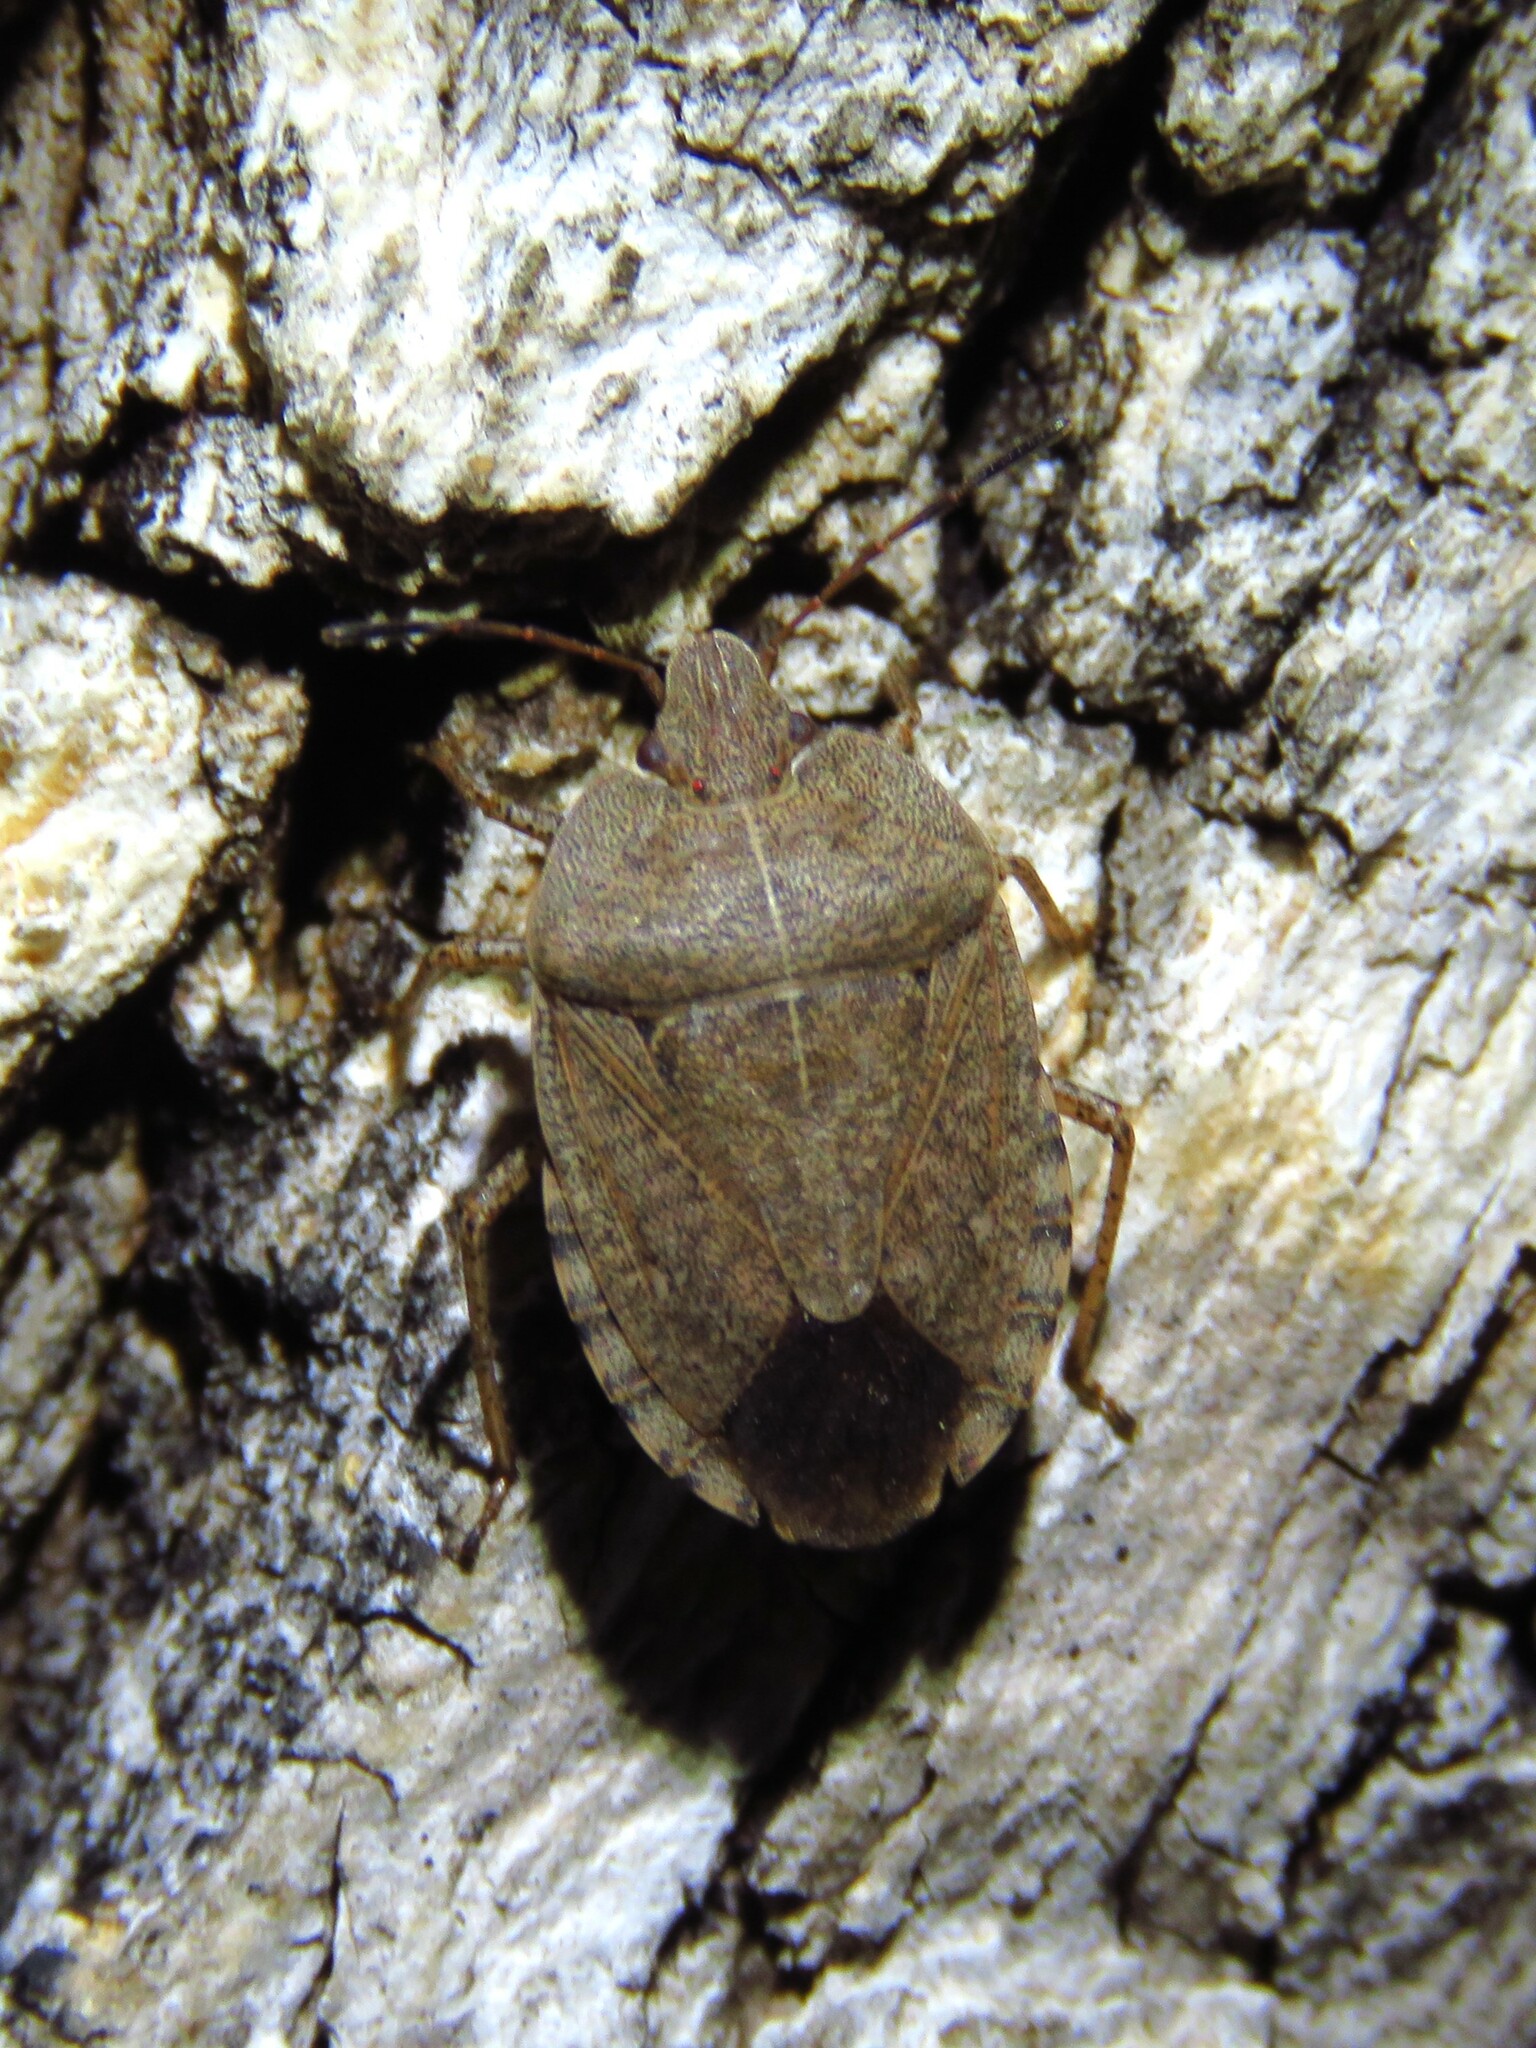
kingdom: Animalia
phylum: Arthropoda
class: Insecta
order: Hemiptera
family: Pentatomidae
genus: Menecles
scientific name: Menecles insertus
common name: Elf shoe stink bug
